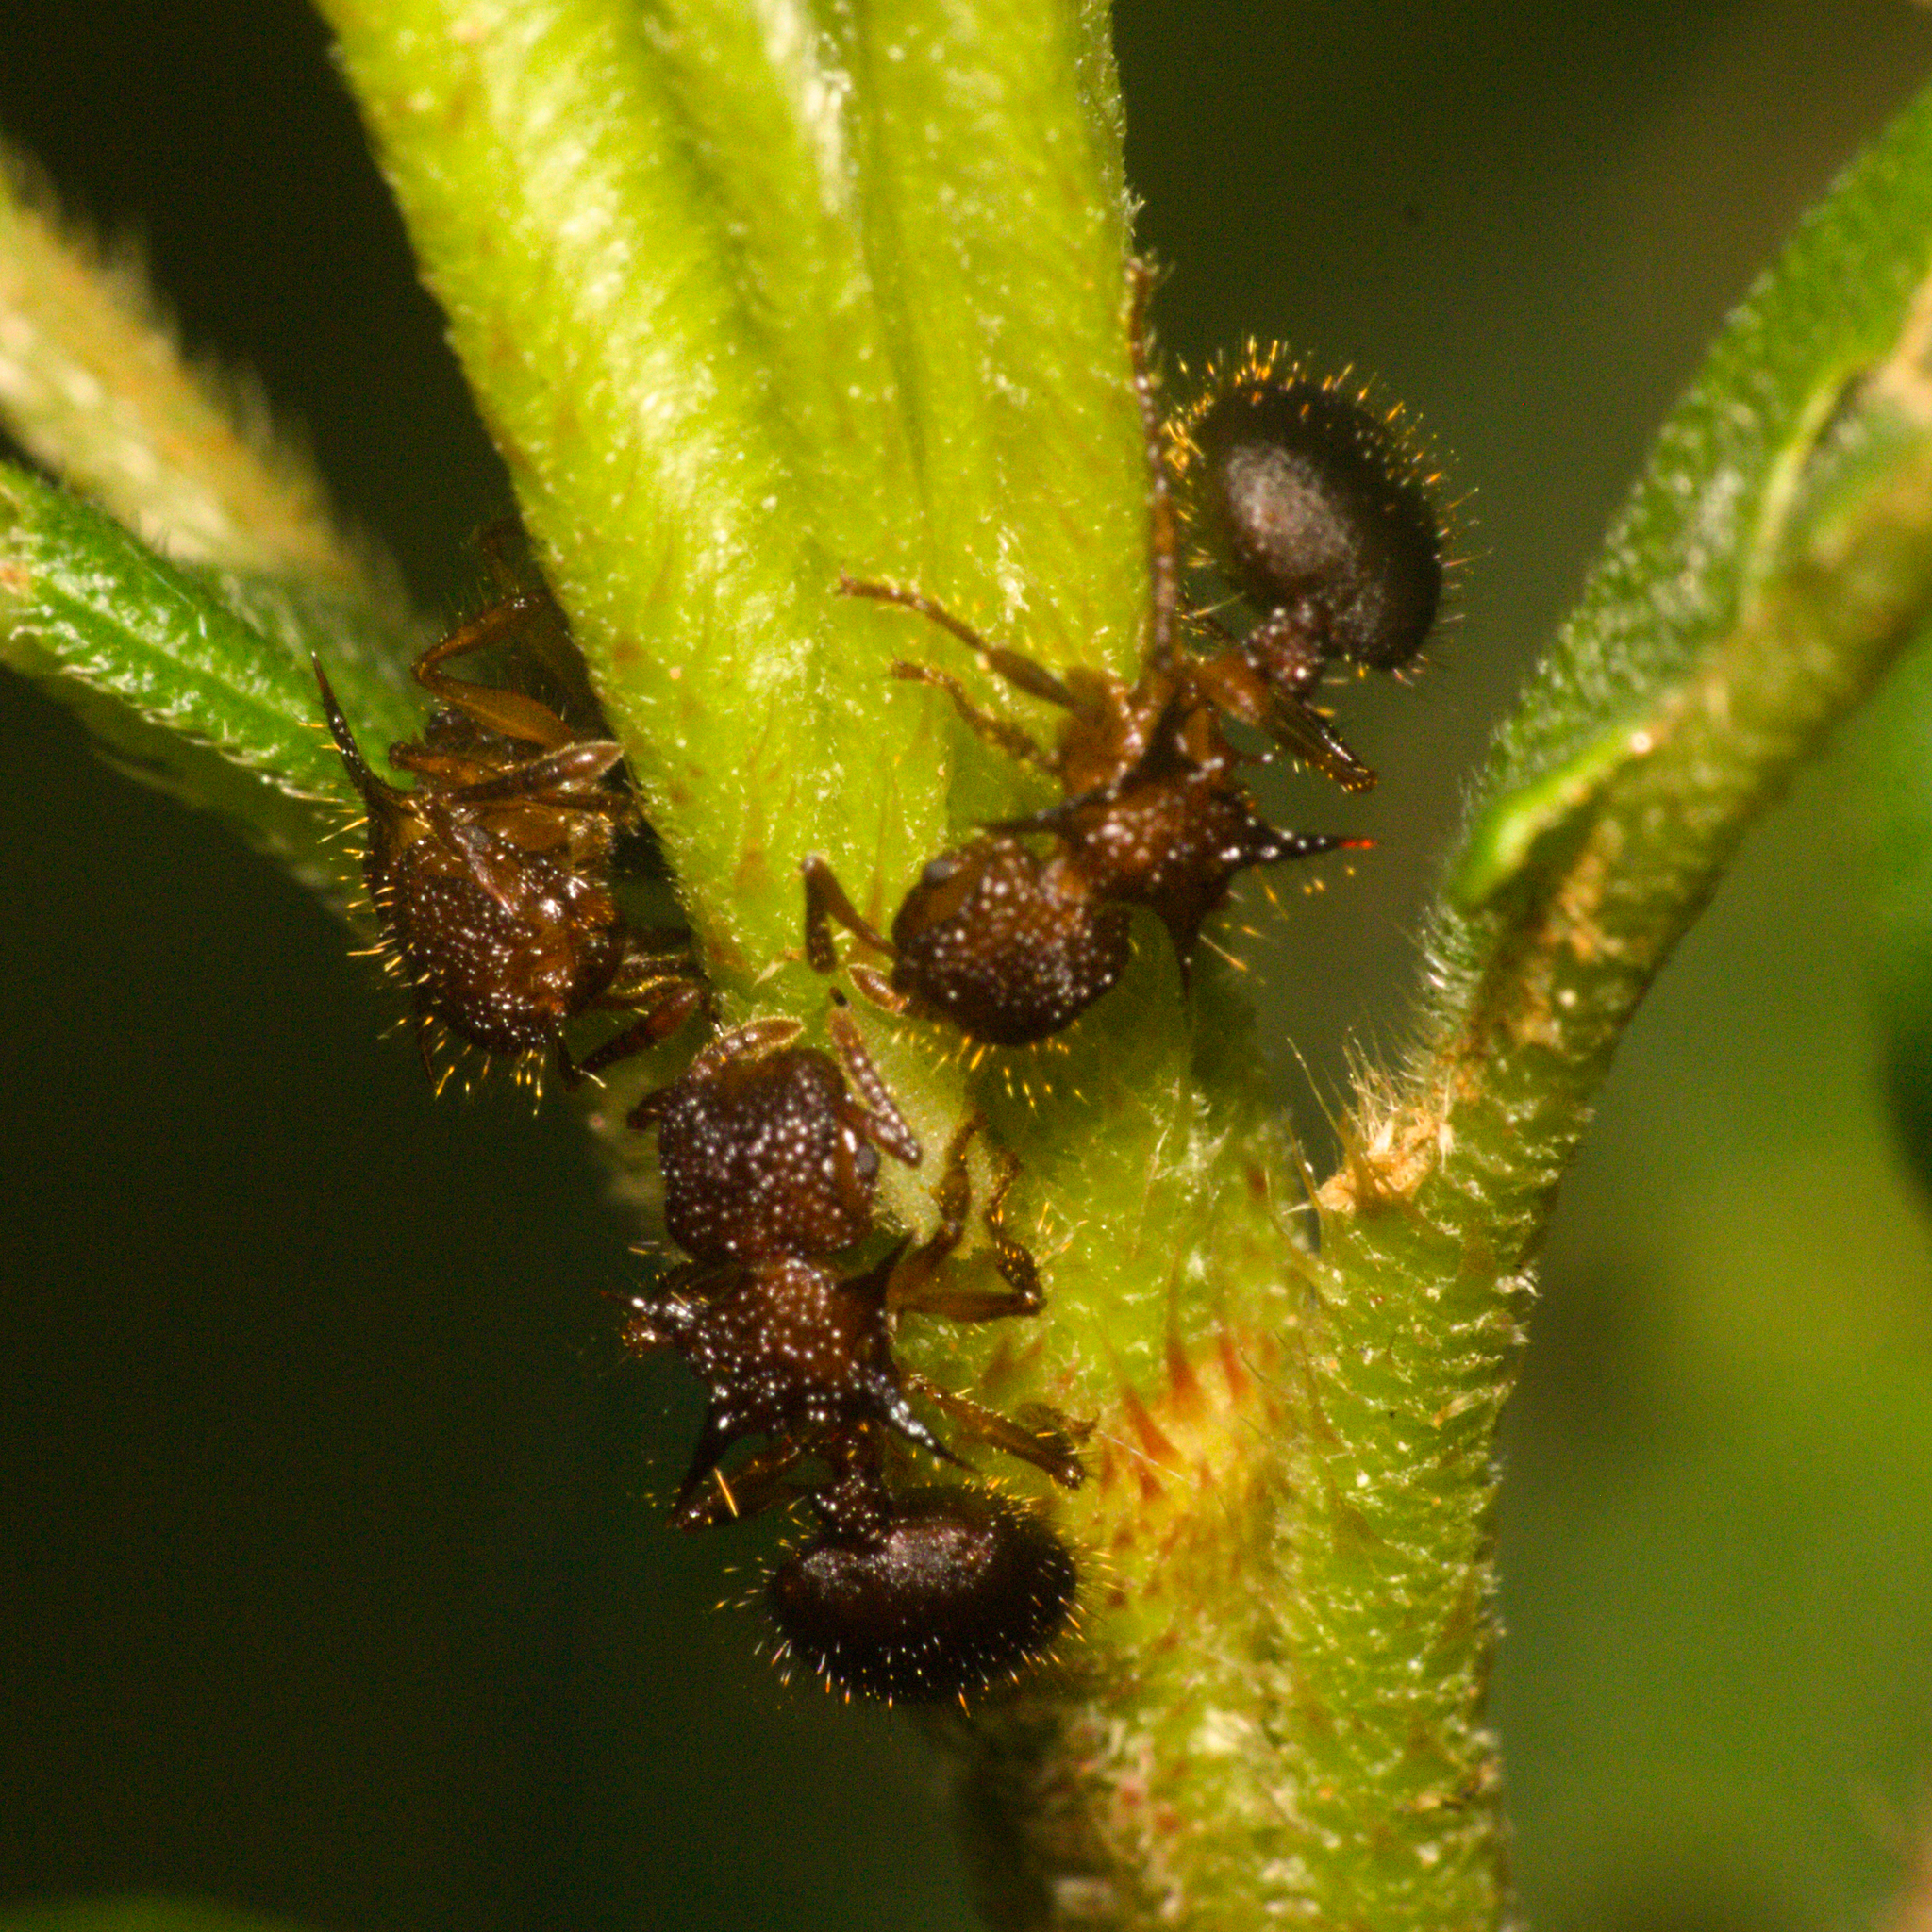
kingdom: Animalia
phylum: Arthropoda
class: Insecta
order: Hymenoptera
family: Formicidae
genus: Meranoplus
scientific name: Meranoplus mucronatus
